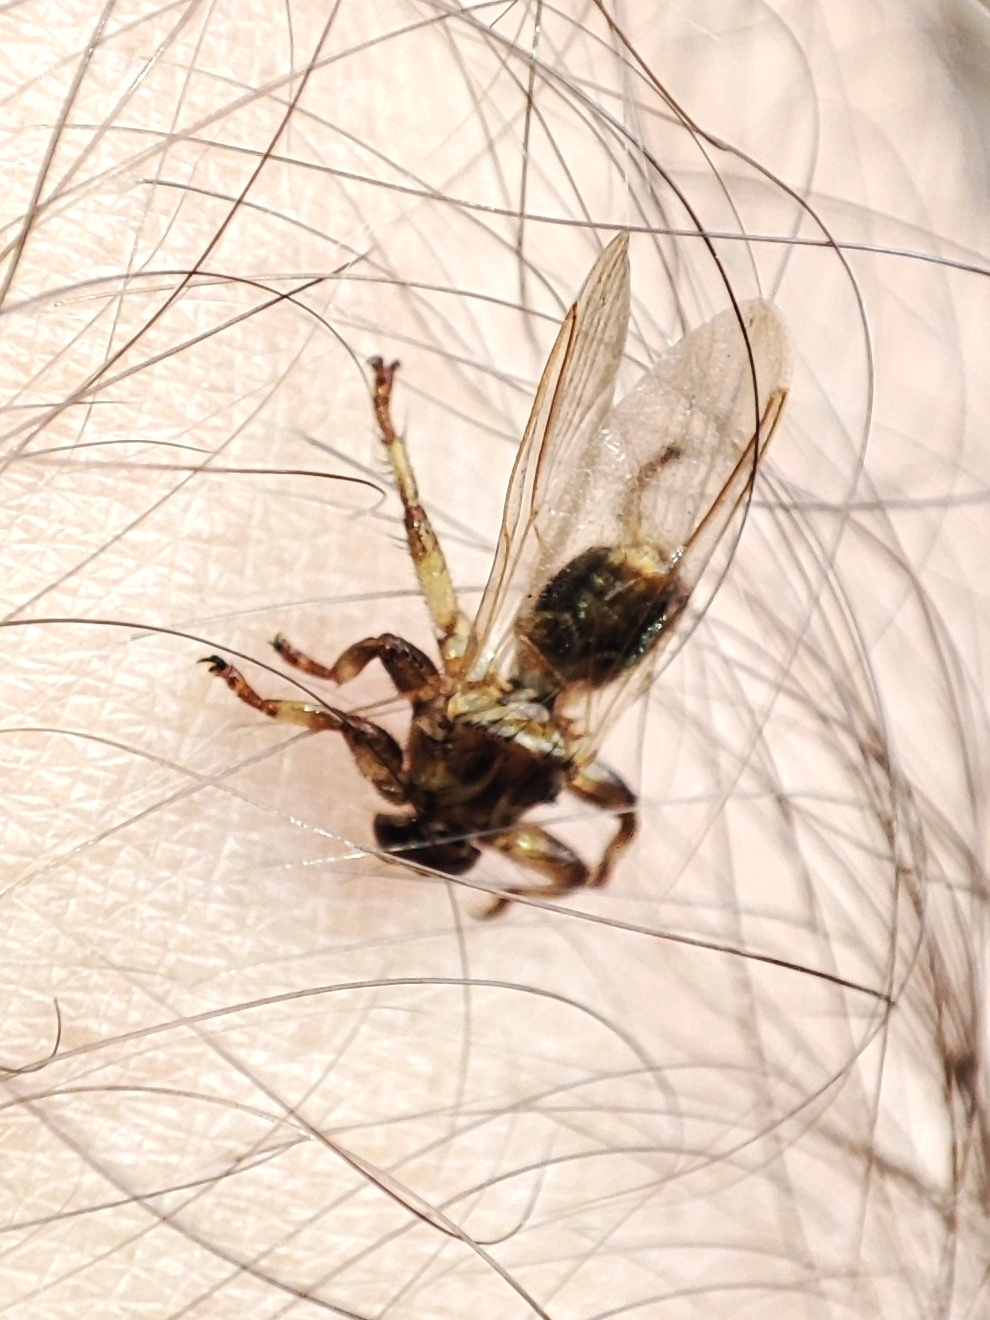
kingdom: Animalia
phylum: Arthropoda
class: Insecta
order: Diptera
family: Hippoboscidae
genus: Lipoptena
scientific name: Lipoptena cervi
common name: Deer ked
